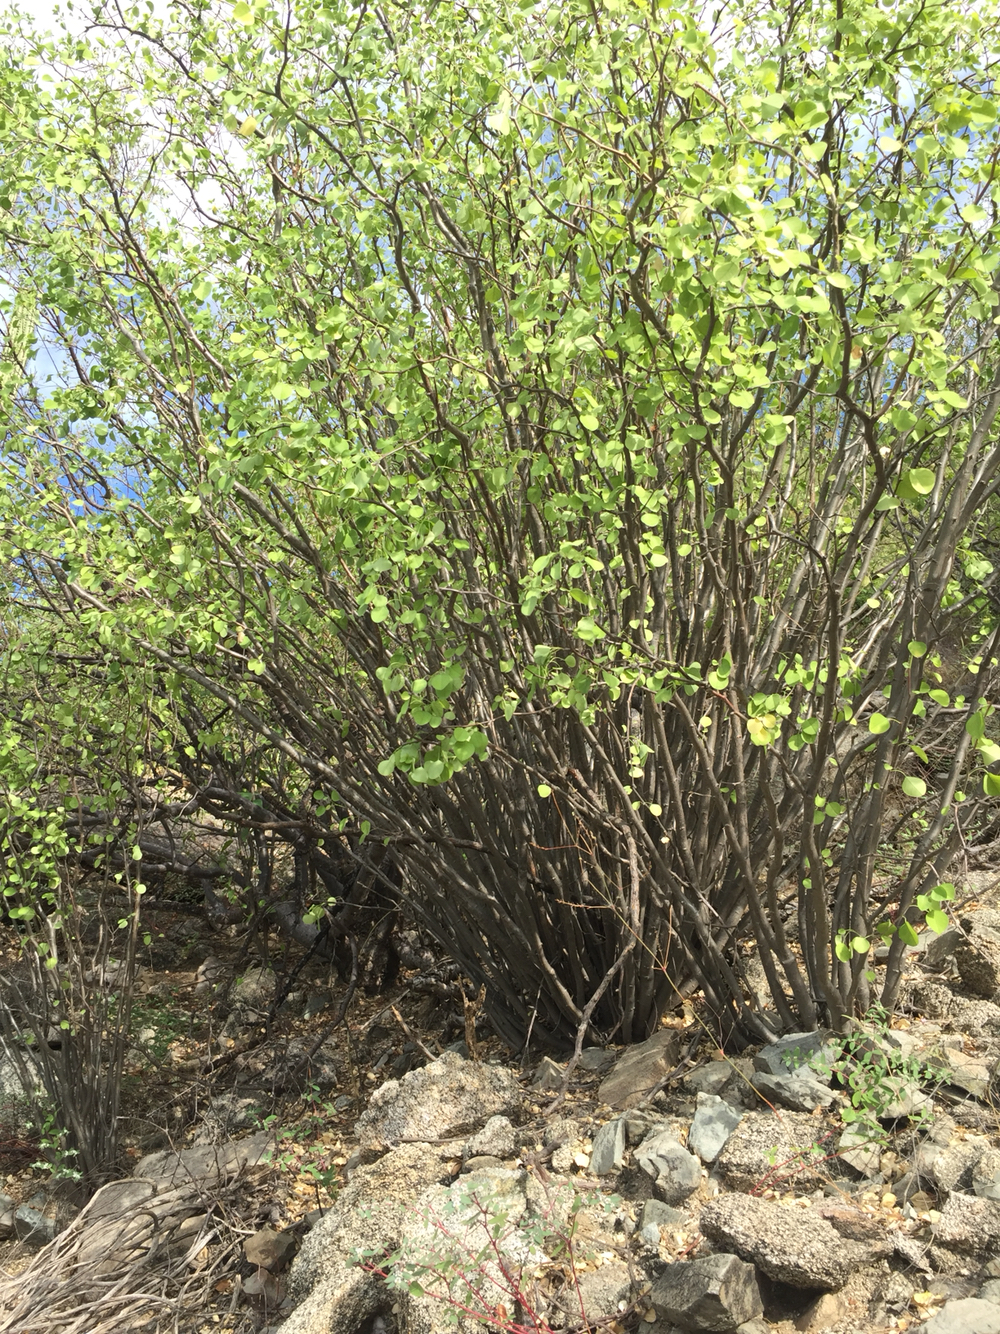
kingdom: Plantae
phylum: Tracheophyta
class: Magnoliopsida
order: Malpighiales
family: Euphorbiaceae
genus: Euphorbia
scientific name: Euphorbia californica
